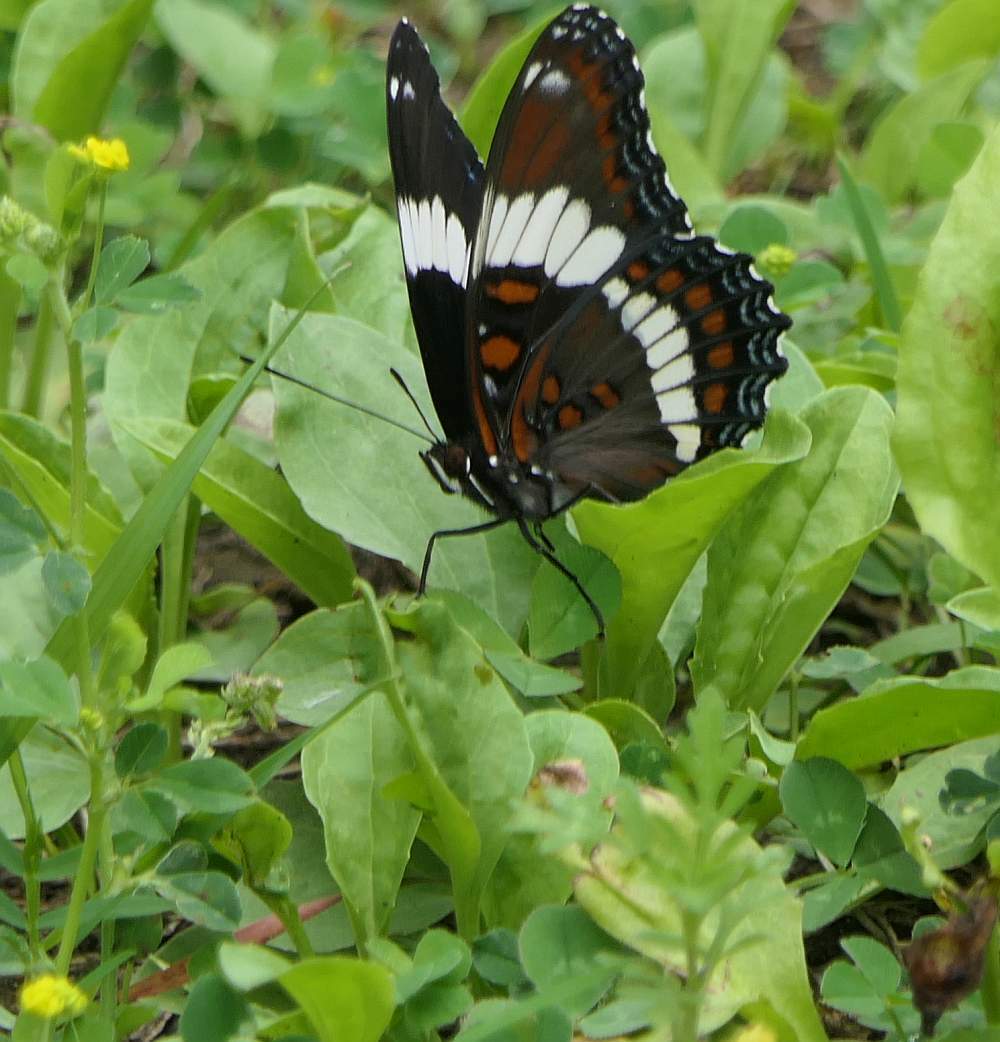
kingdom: Animalia
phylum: Arthropoda
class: Insecta
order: Lepidoptera
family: Nymphalidae
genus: Limenitis
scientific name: Limenitis arthemis
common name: Red-spotted admiral
